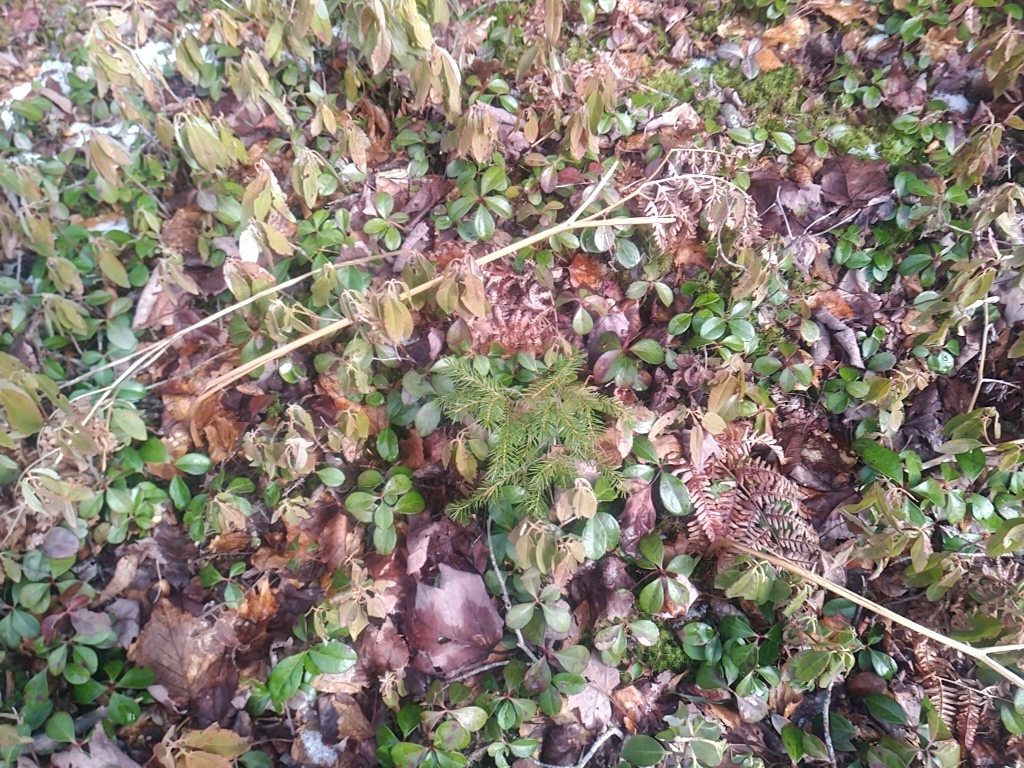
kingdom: Plantae
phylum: Tracheophyta
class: Magnoliopsida
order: Ericales
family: Ericaceae
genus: Gaultheria
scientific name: Gaultheria procumbens
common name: Checkerberry
